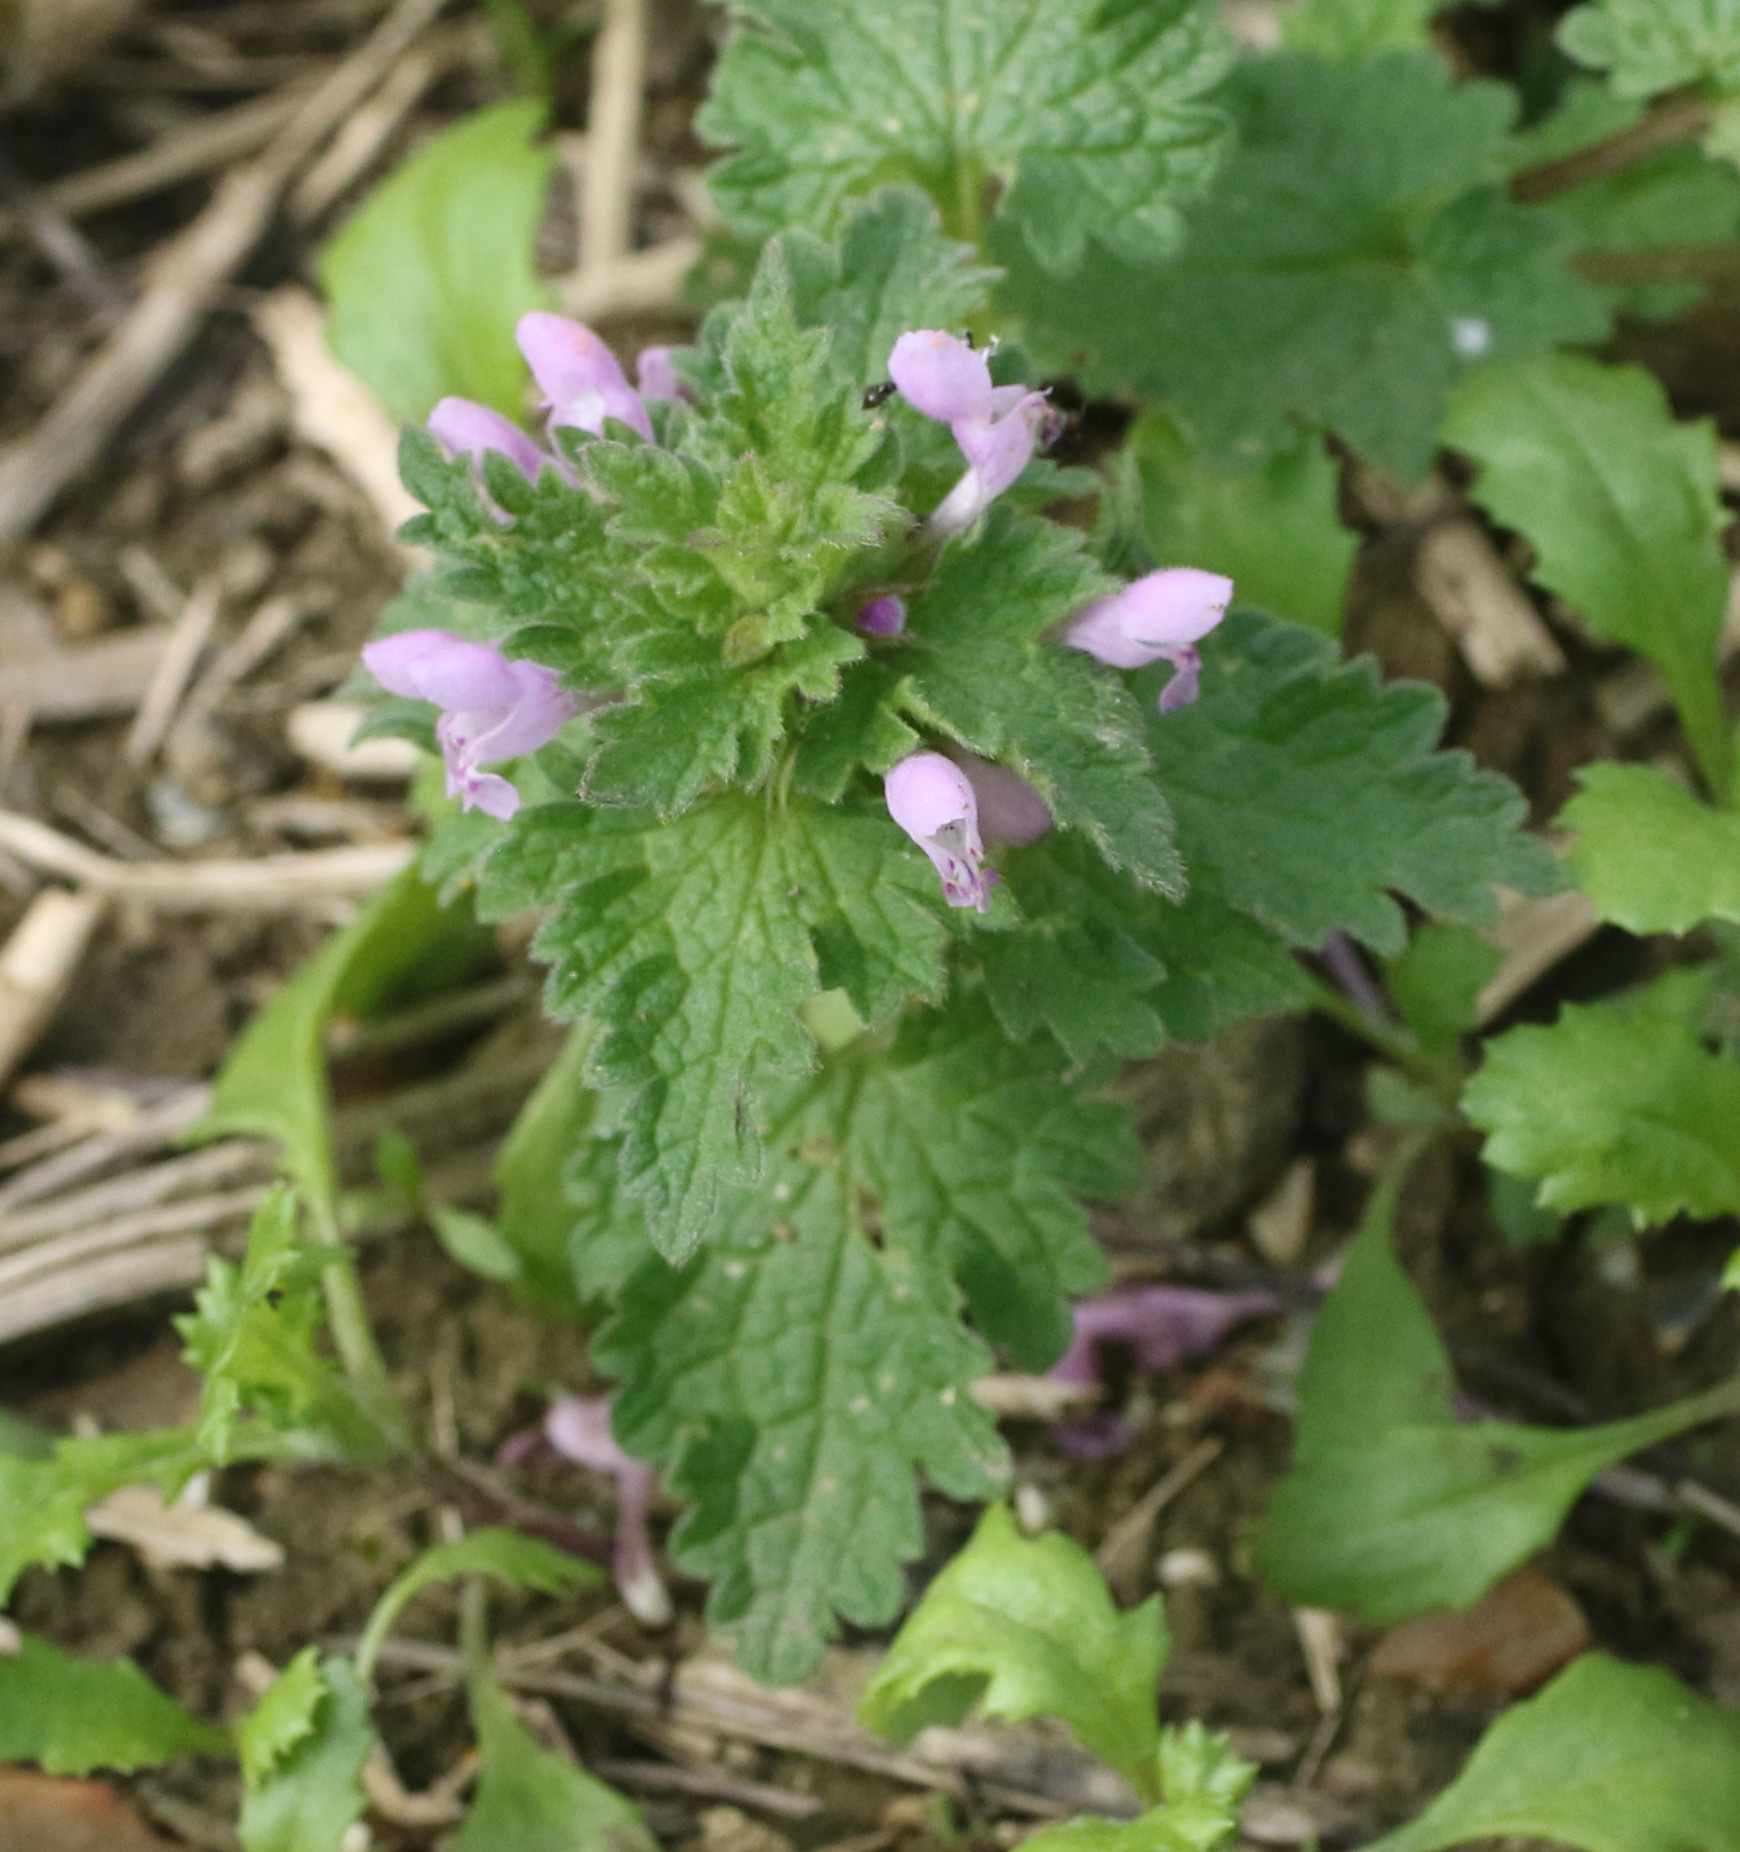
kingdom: Plantae
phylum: Tracheophyta
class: Magnoliopsida
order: Lamiales
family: Lamiaceae
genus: Lamium
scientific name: Lamium purpureum
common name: Red dead-nettle
